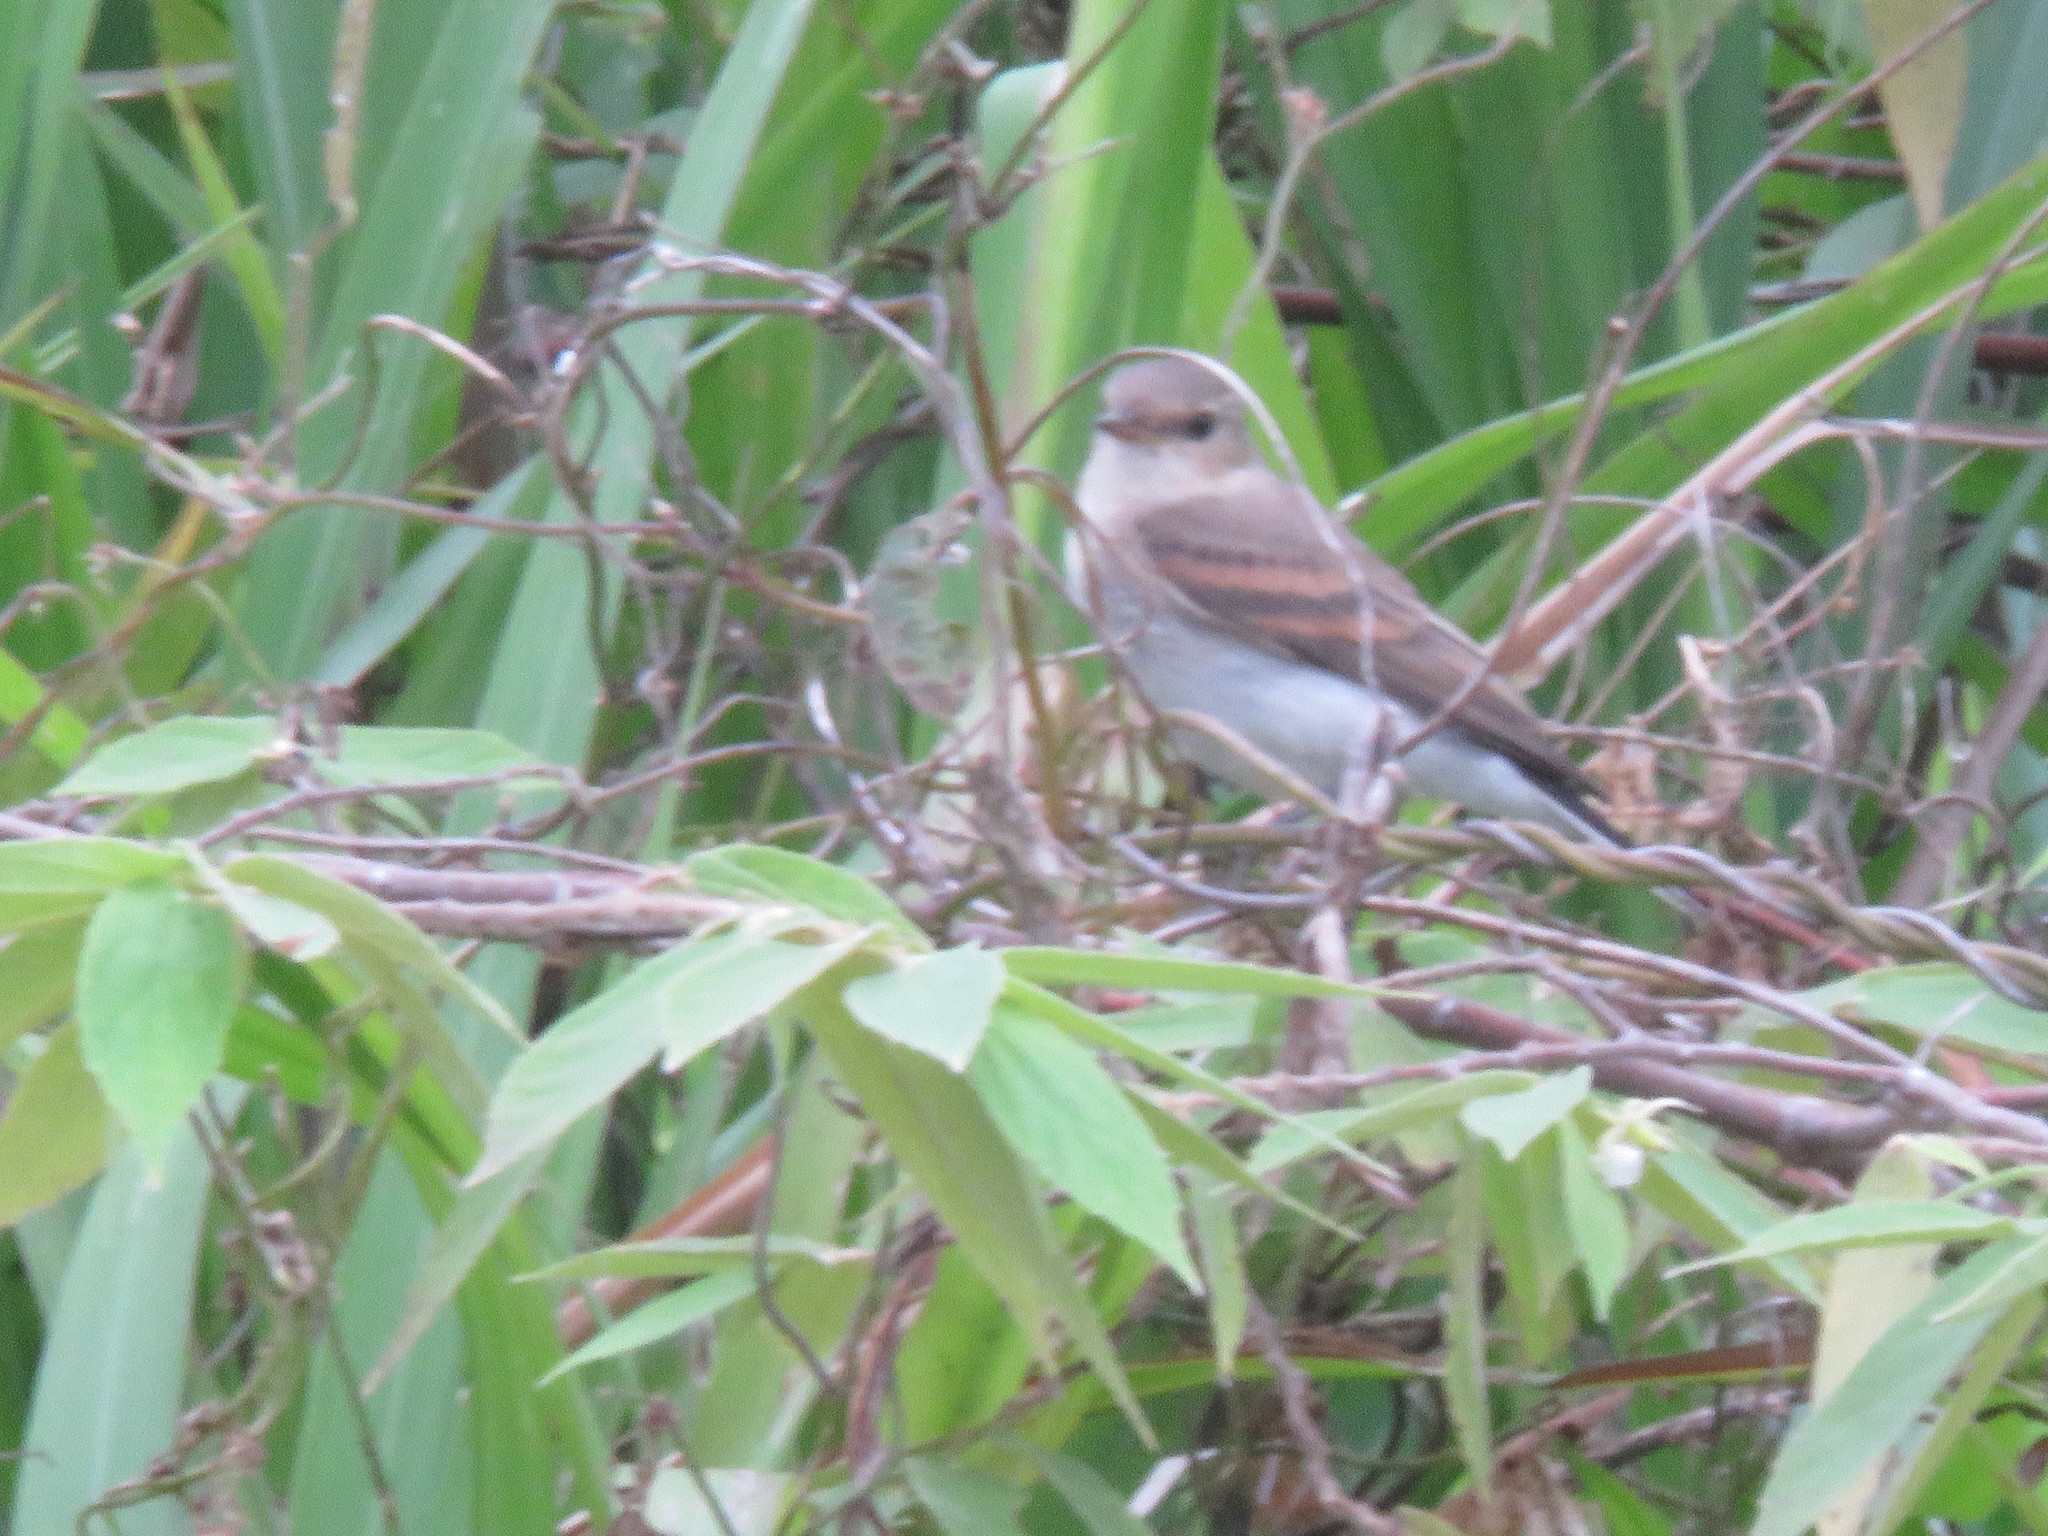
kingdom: Animalia
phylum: Chordata
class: Aves
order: Passeriformes
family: Tyrannidae
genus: Muscisaxicola
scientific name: Muscisaxicola fluviatilis
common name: Little ground tyrant
